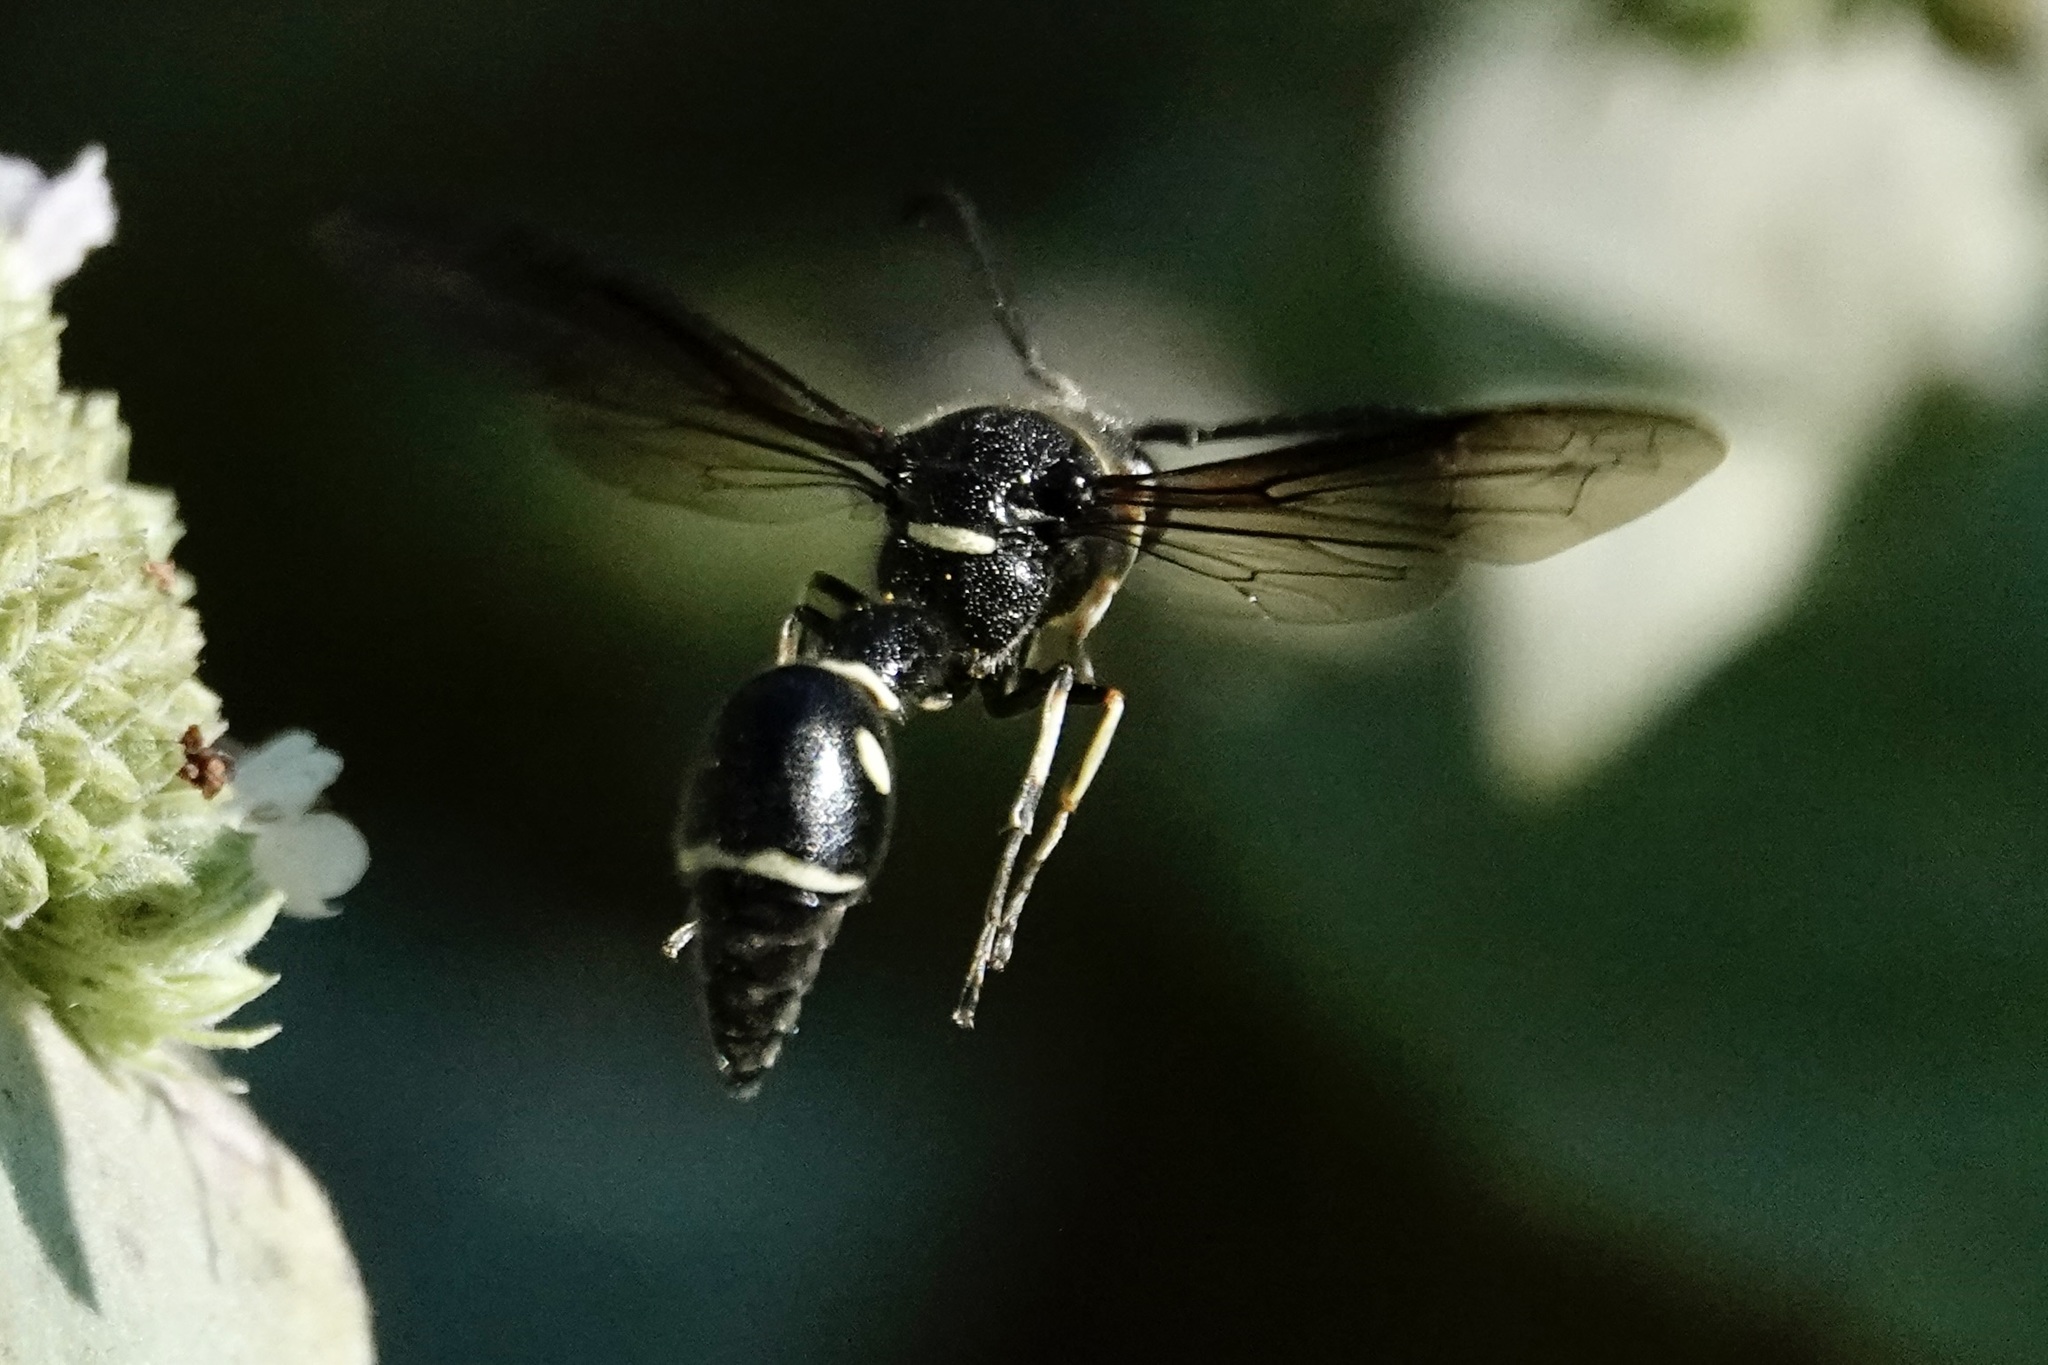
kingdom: Animalia
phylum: Arthropoda
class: Insecta
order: Hymenoptera
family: Vespidae
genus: Eumenes
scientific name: Eumenes fraternus
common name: Fraternal potter wasp
